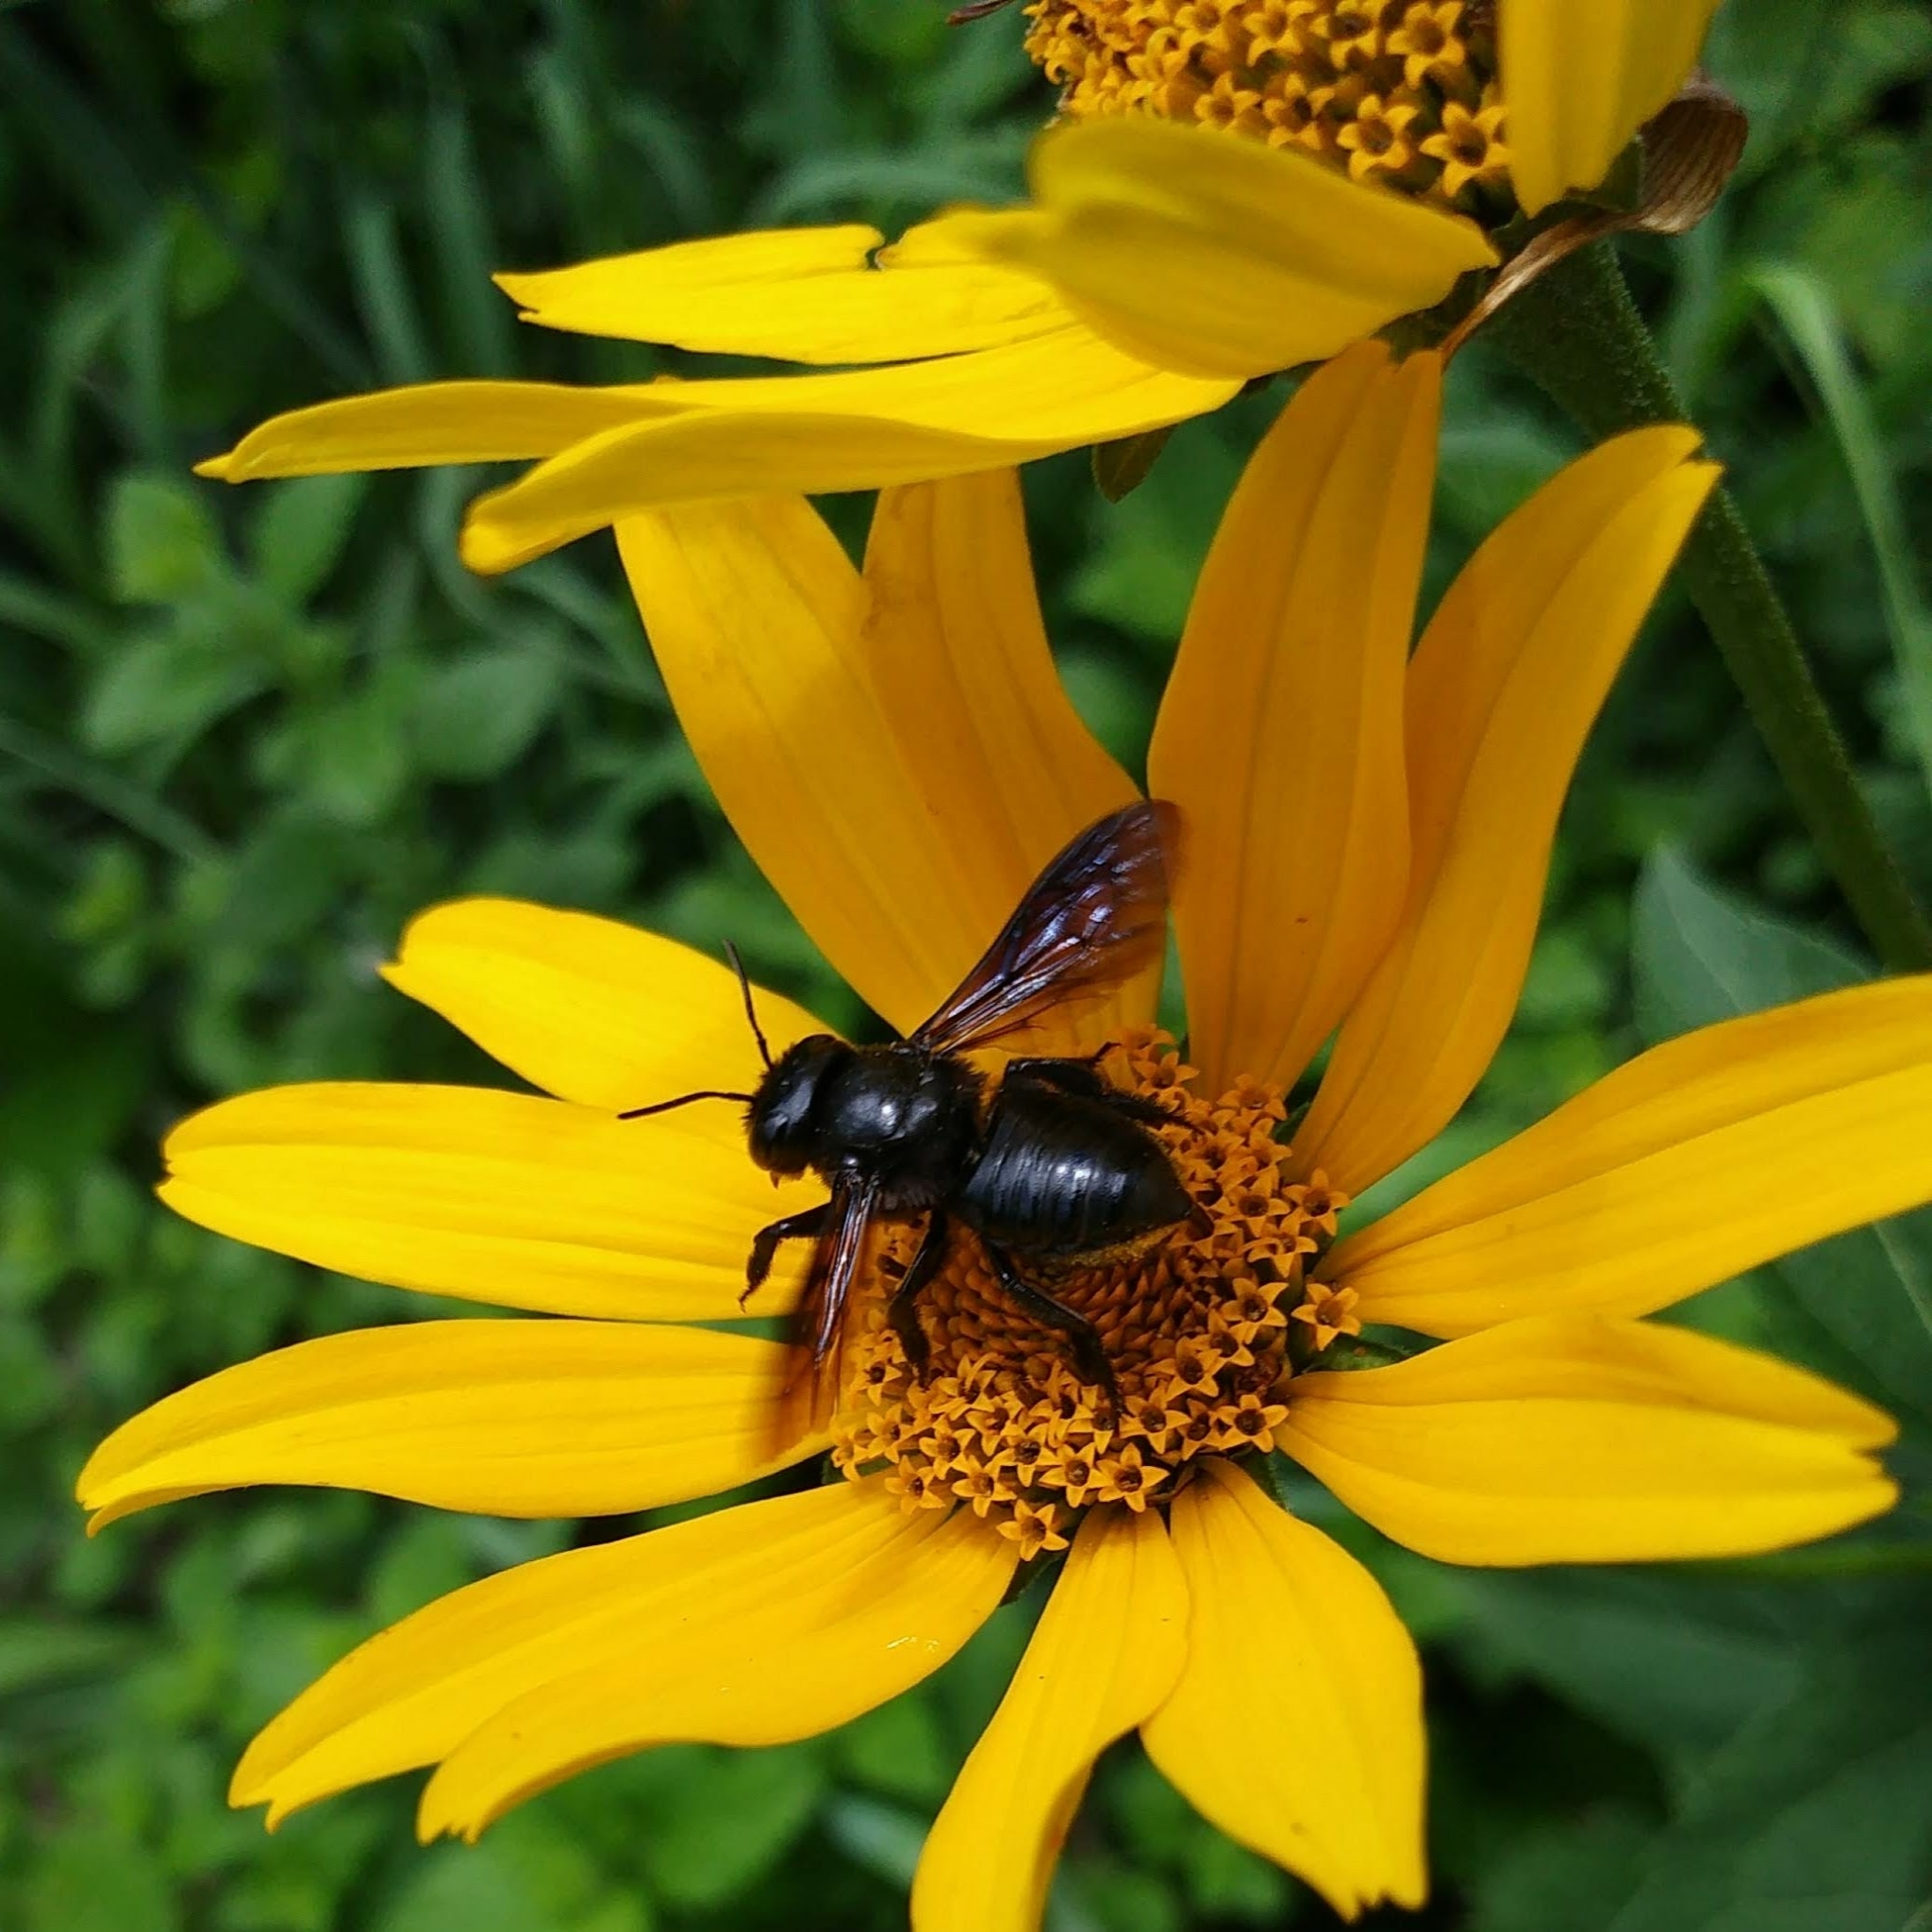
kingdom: Animalia
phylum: Arthropoda
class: Insecta
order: Hymenoptera
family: Megachilidae
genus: Megachile
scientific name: Megachile xylocopoides
